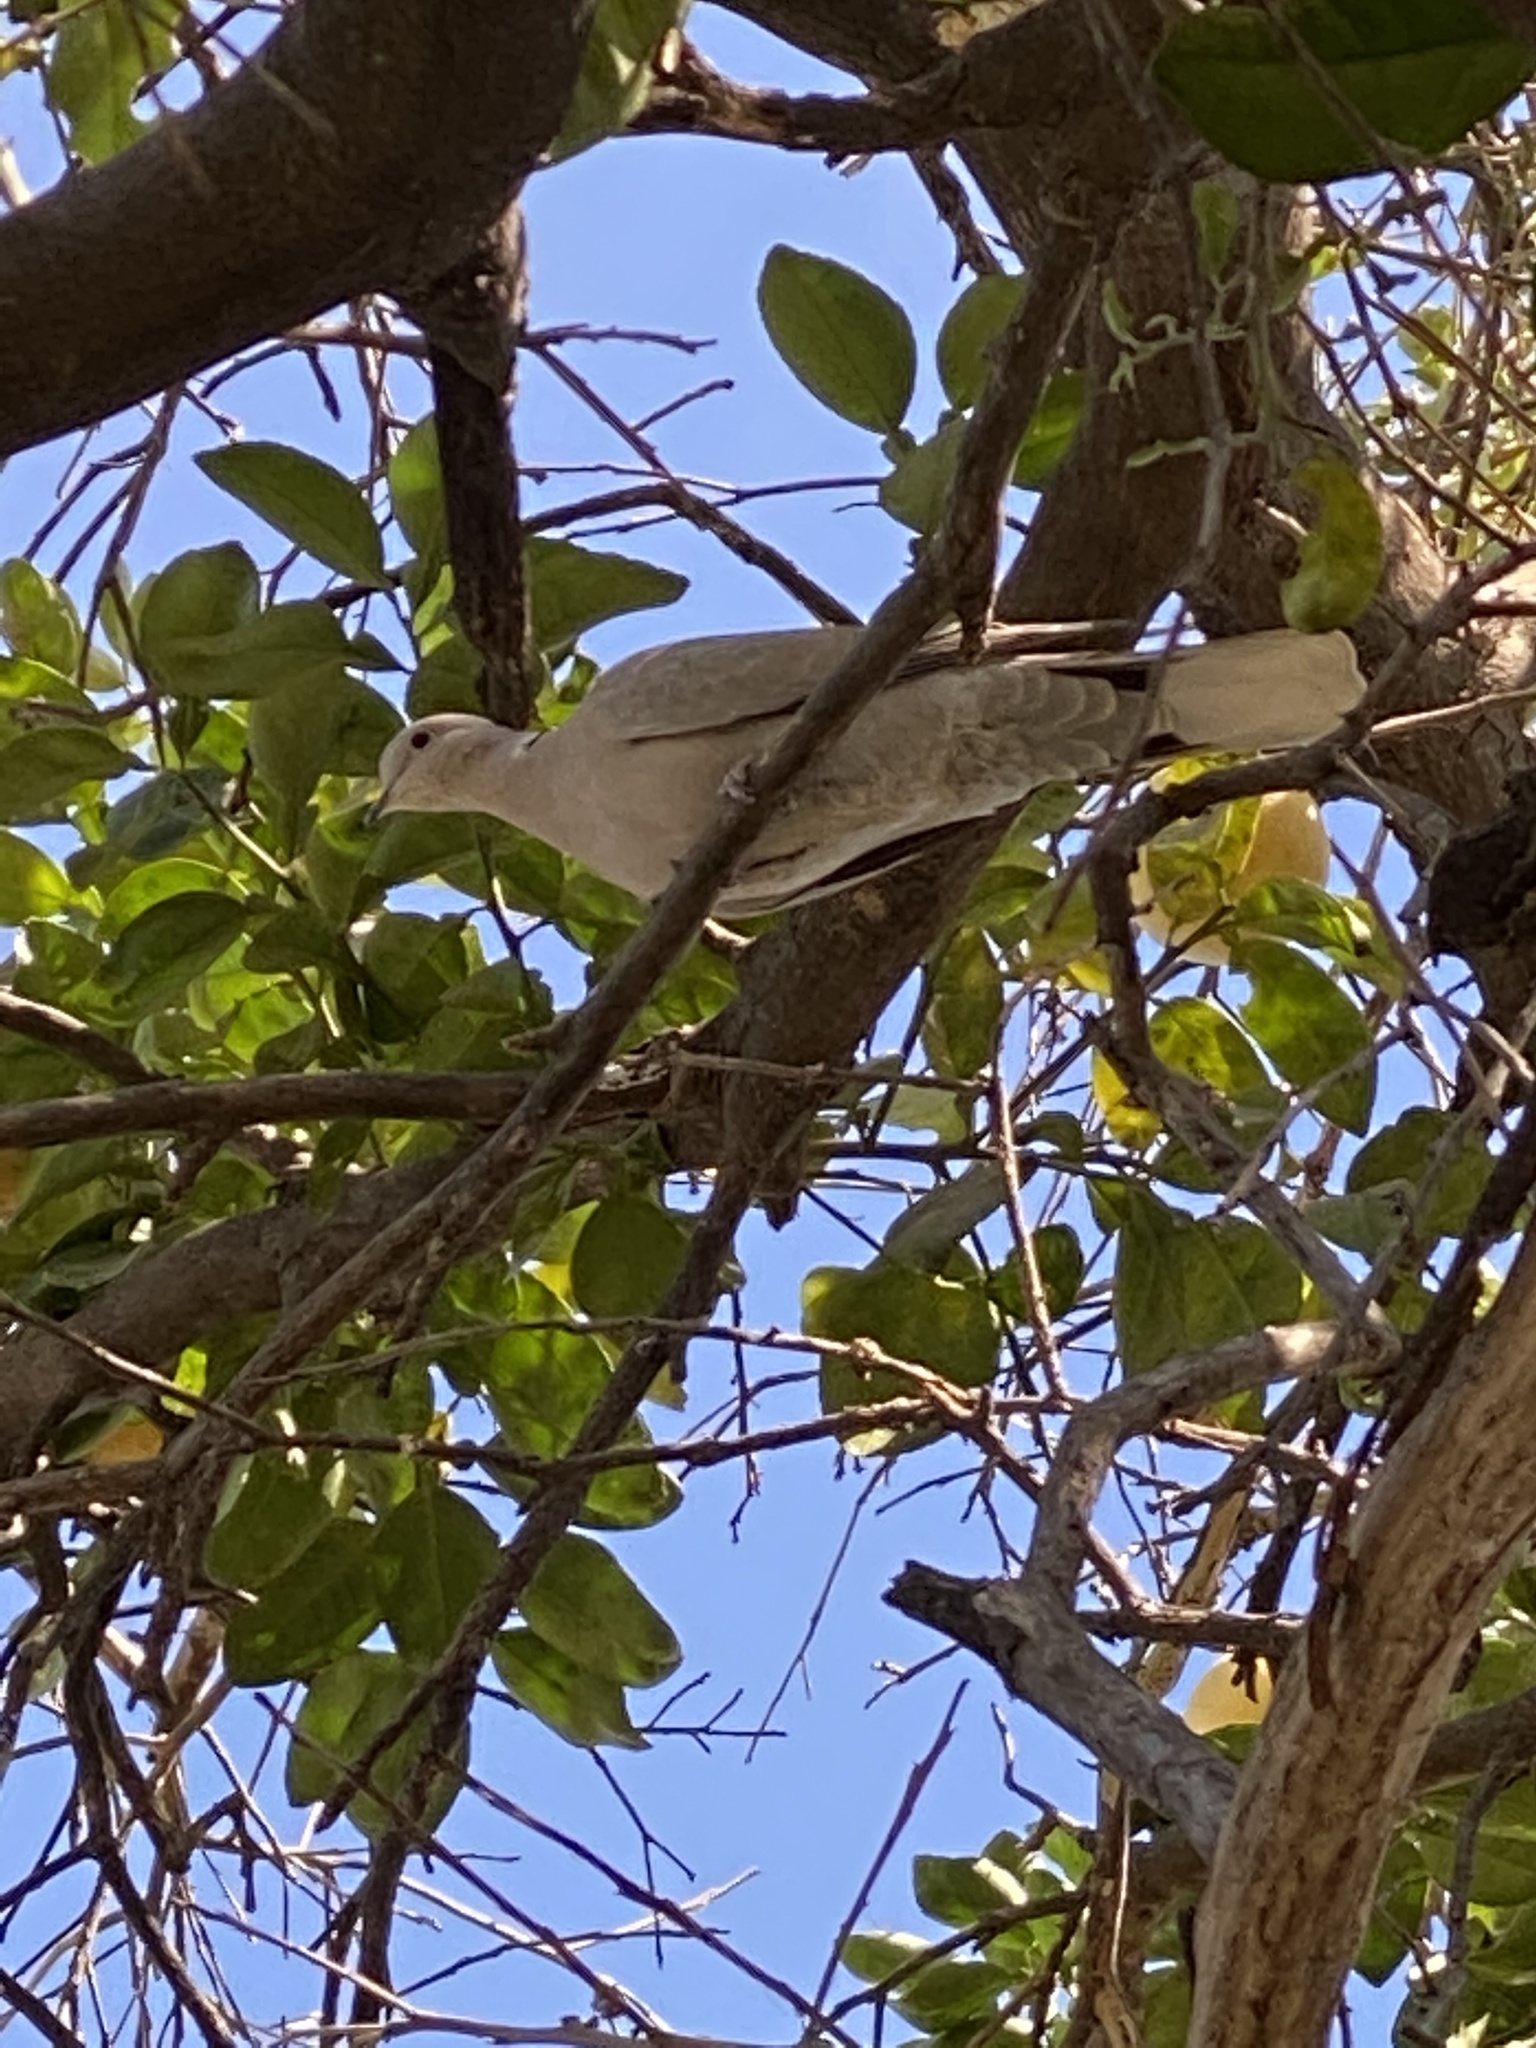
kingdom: Animalia
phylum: Chordata
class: Aves
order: Columbiformes
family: Columbidae
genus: Streptopelia
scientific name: Streptopelia decaocto
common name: Eurasian collared dove
